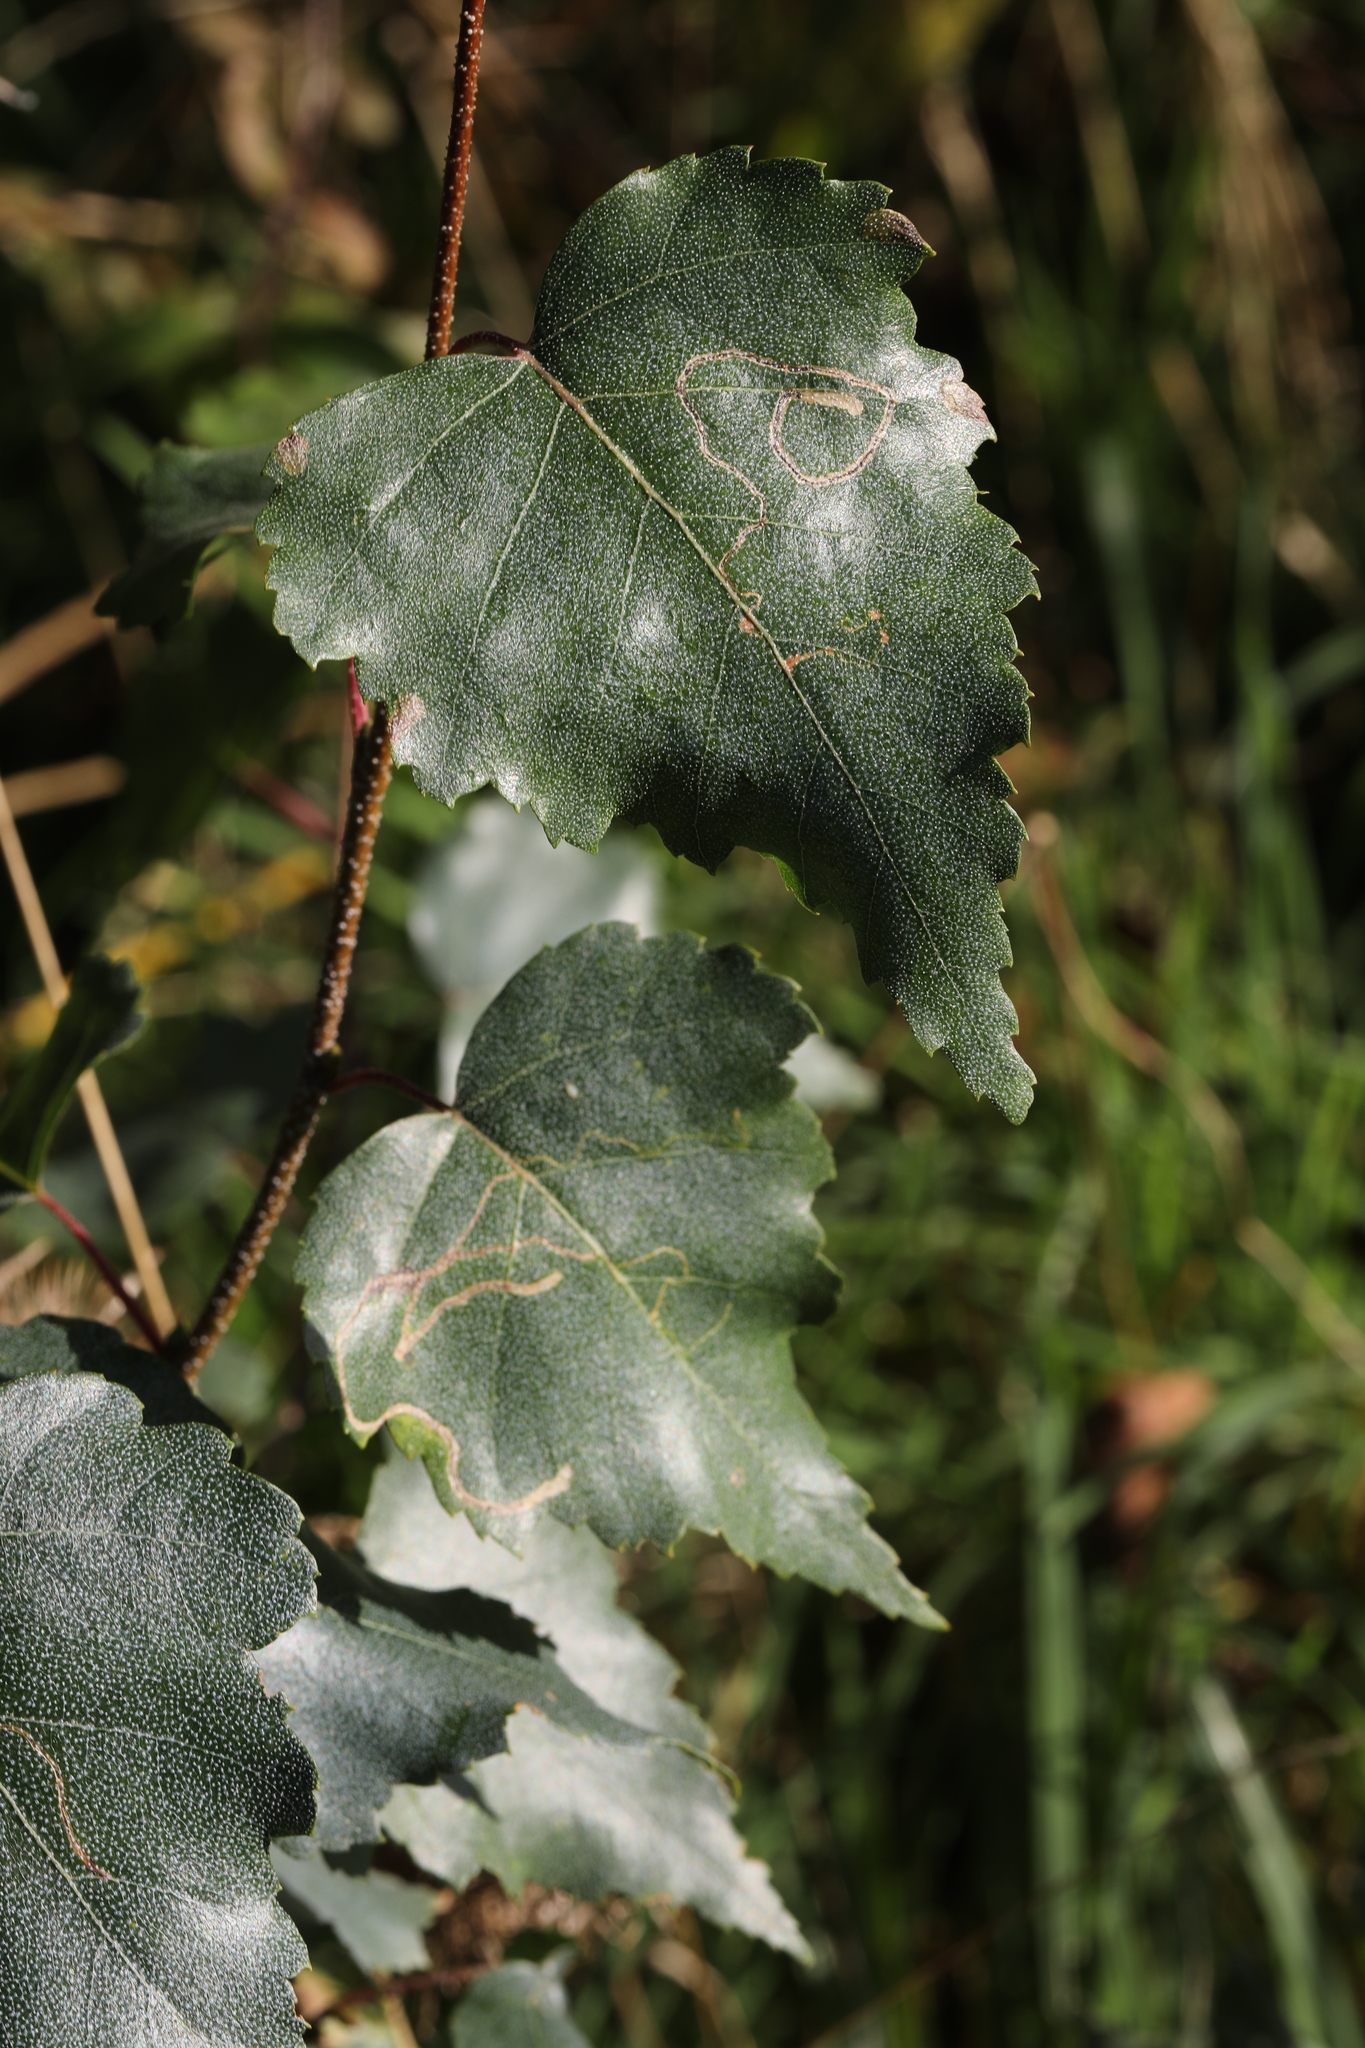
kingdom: Plantae
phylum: Tracheophyta
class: Magnoliopsida
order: Fagales
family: Betulaceae
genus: Betula
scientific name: Betula pendula
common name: Silver birch
